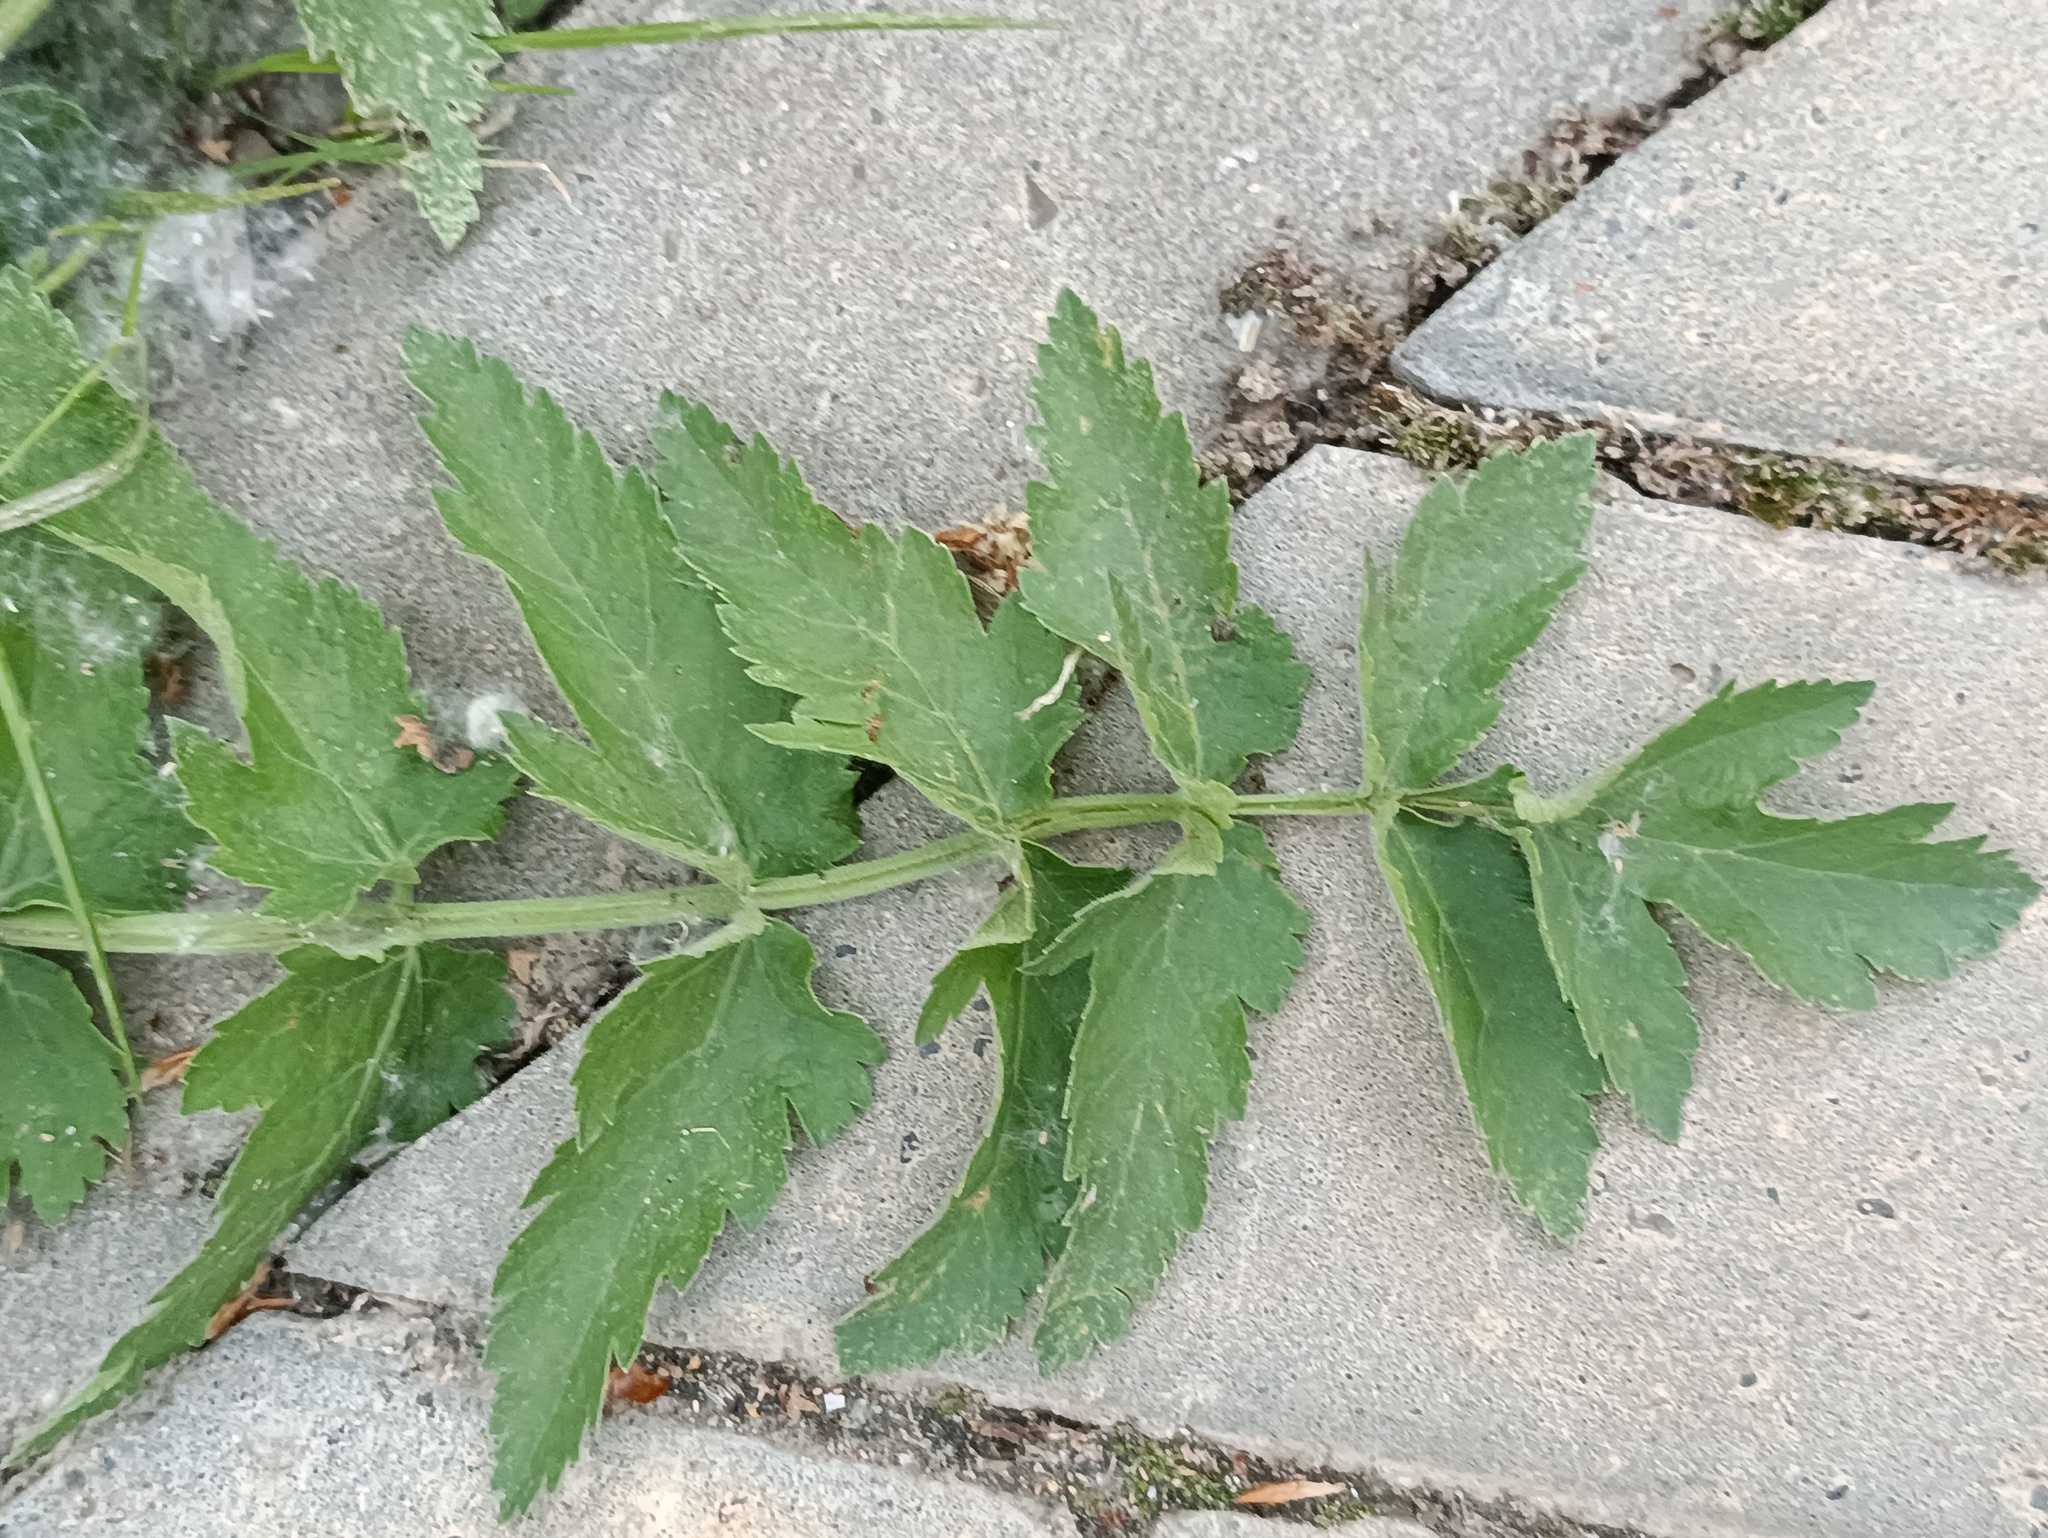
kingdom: Plantae
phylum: Tracheophyta
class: Magnoliopsida
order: Apiales
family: Apiaceae
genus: Pastinaca
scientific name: Pastinaca sativa
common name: Wild parsnip
